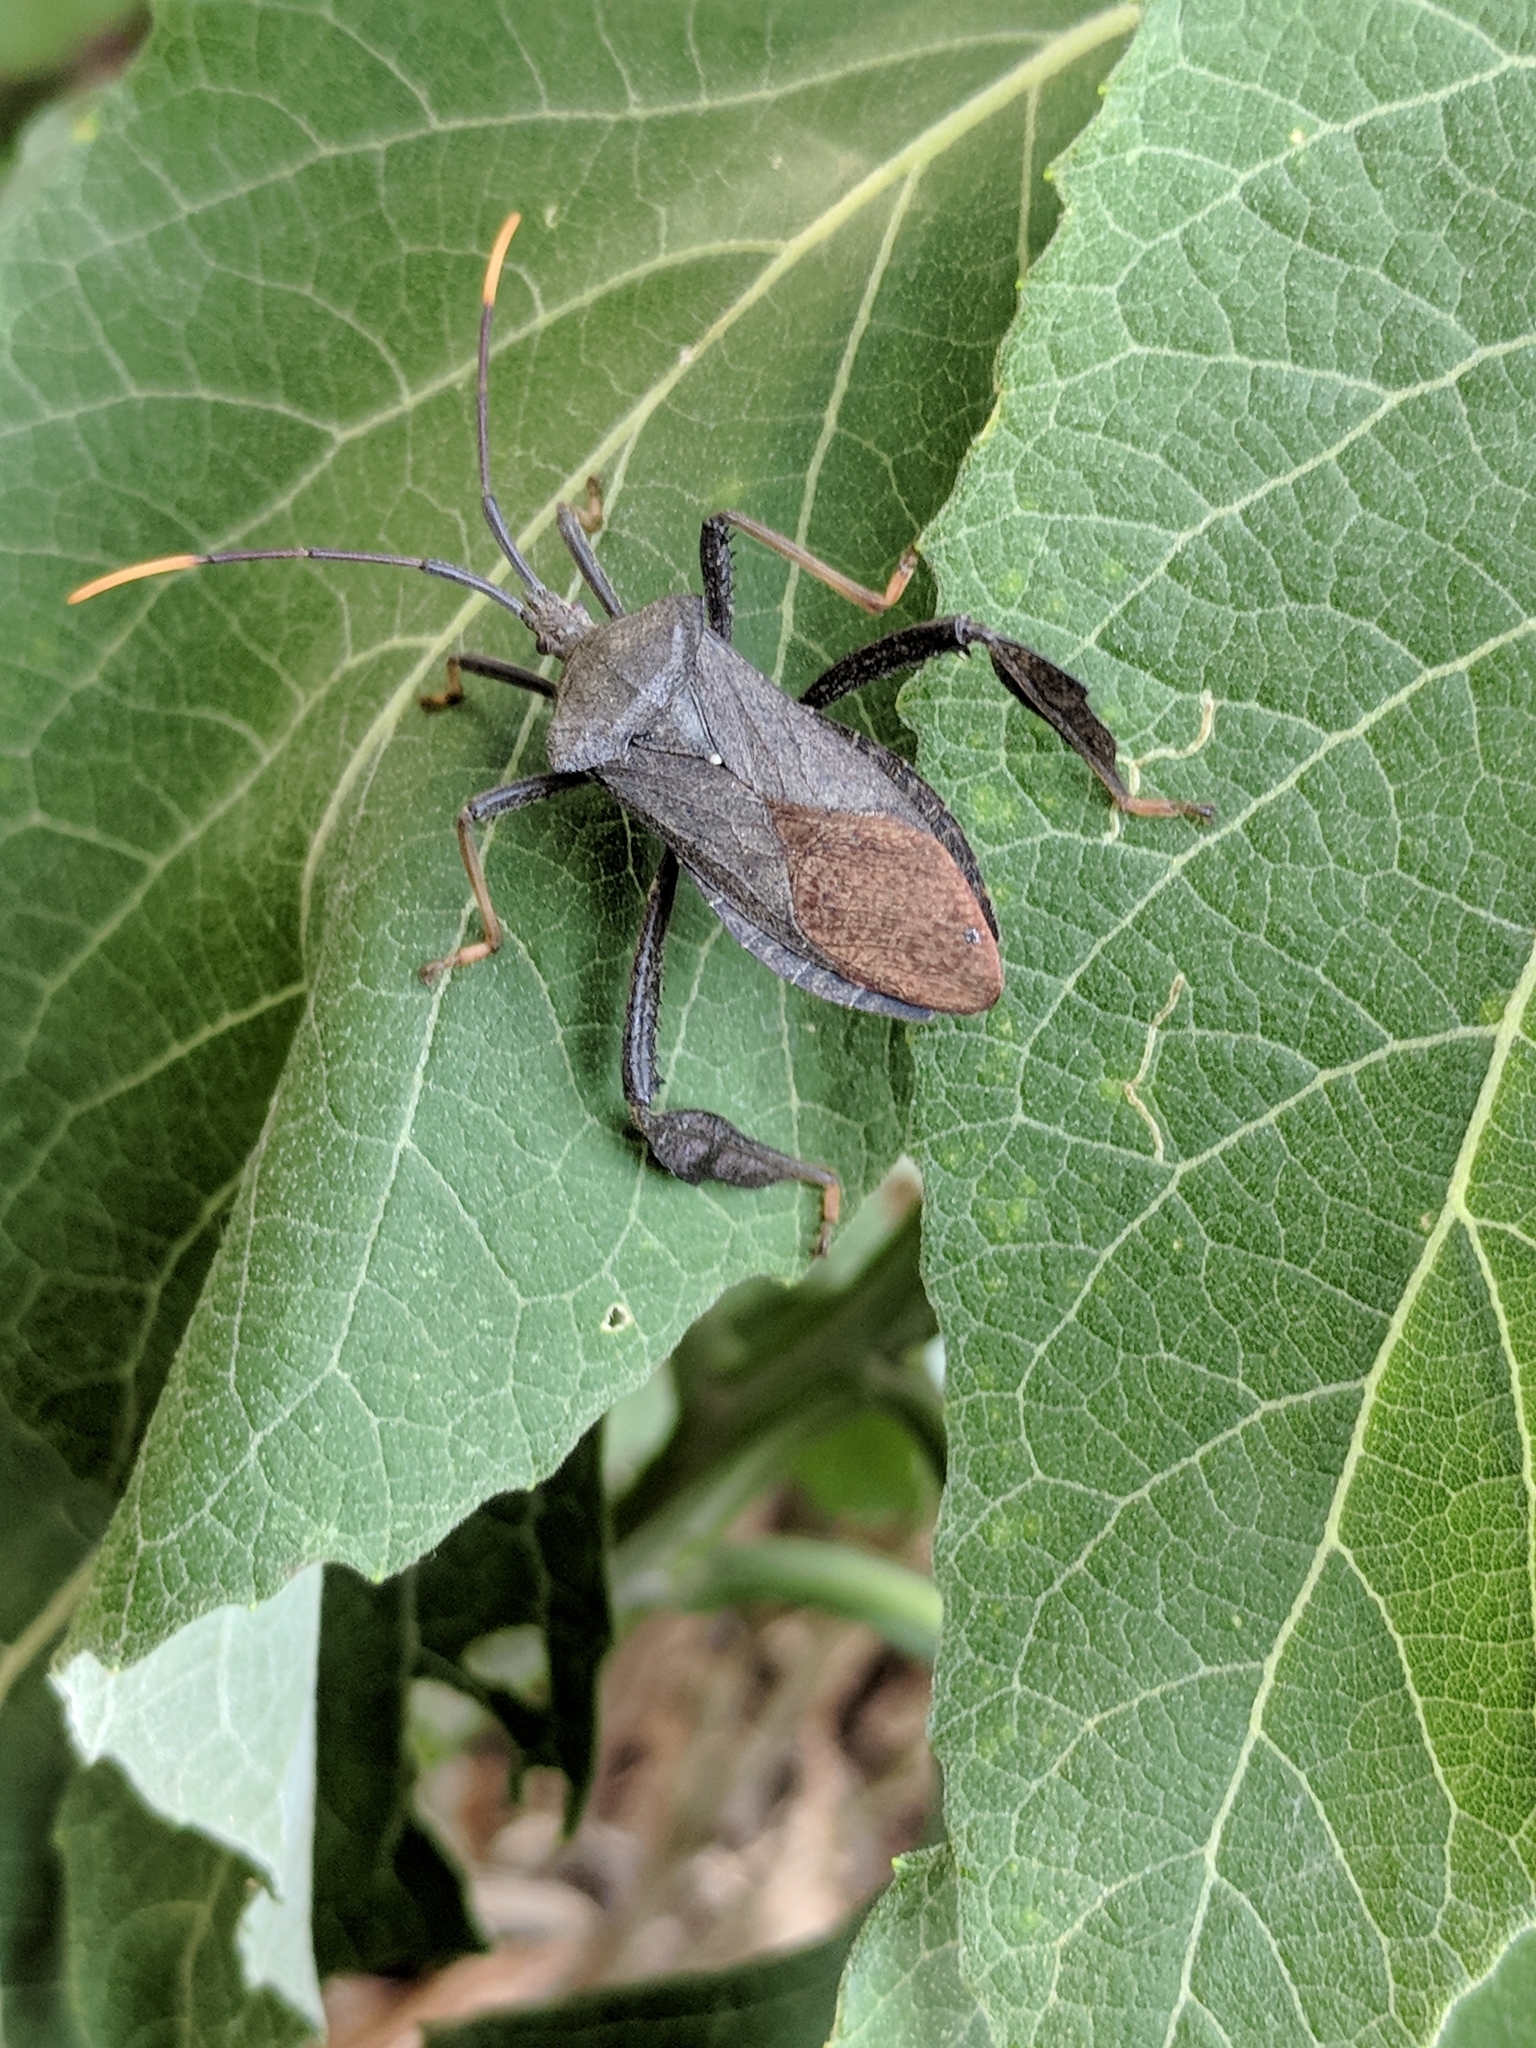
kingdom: Animalia
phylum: Arthropoda
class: Insecta
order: Hemiptera
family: Coreidae
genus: Acanthocephala
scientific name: Acanthocephala terminalis
